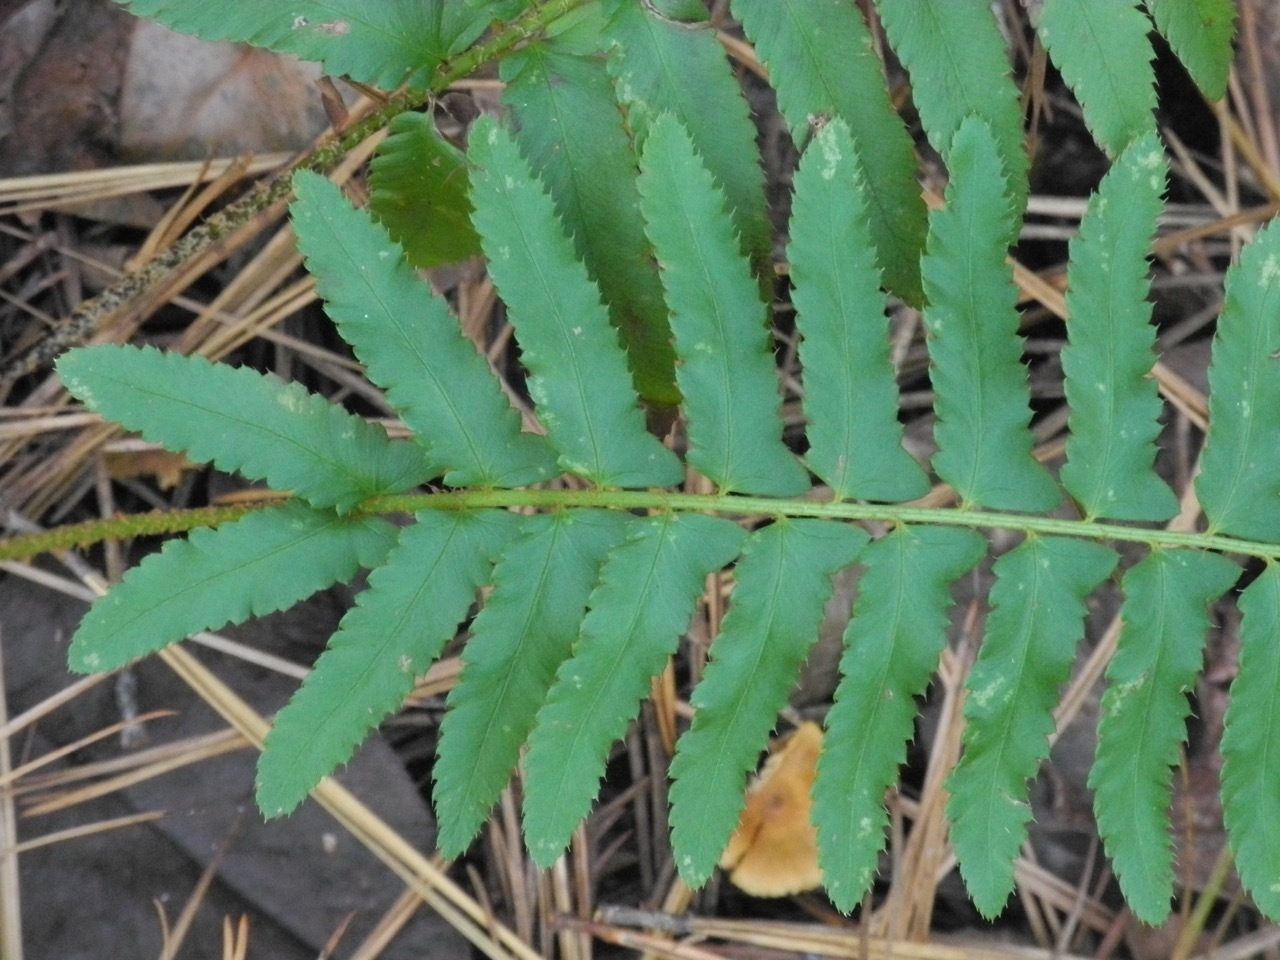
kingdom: Plantae
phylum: Tracheophyta
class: Polypodiopsida
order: Polypodiales
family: Dryopteridaceae
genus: Polystichum
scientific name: Polystichum acrostichoides
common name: Christmas fern
